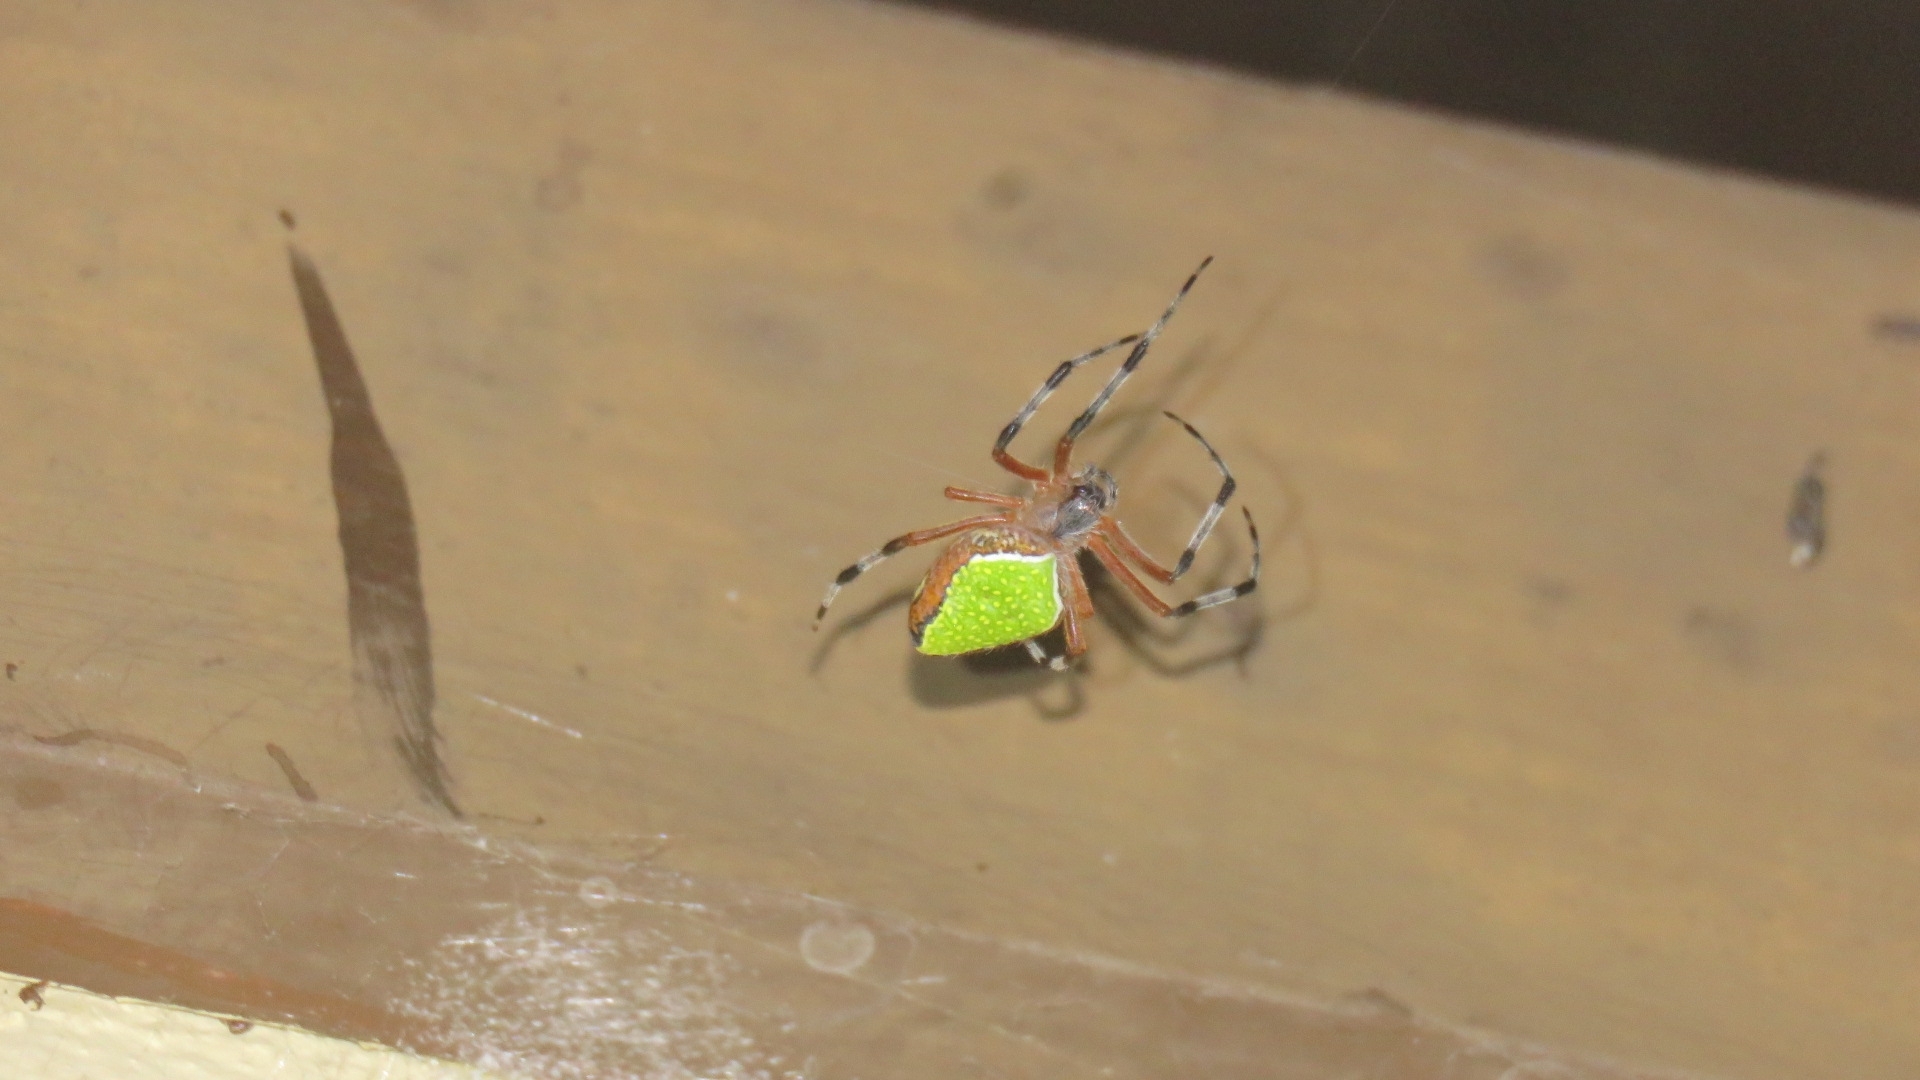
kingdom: Animalia
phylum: Arthropoda
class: Arachnida
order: Araneae
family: Araneidae
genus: Eriophora
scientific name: Eriophora nephiloides
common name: Orb weavers
